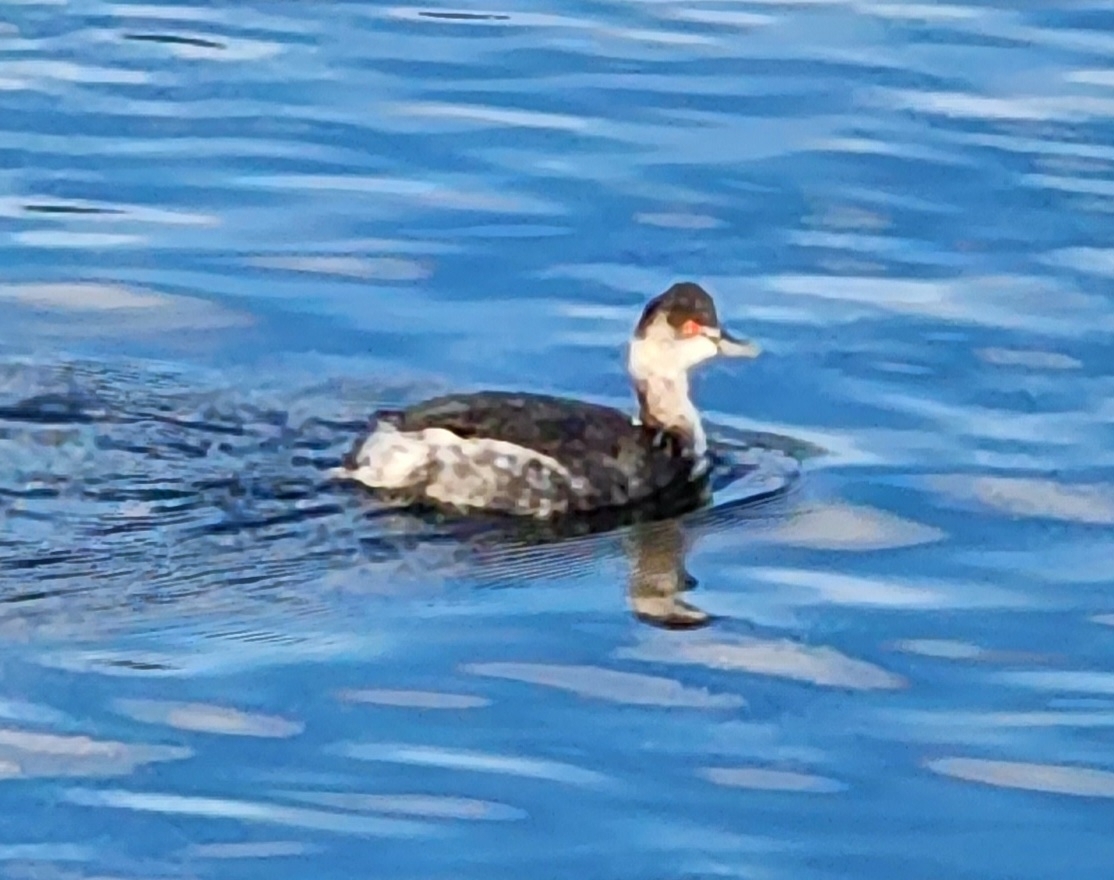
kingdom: Animalia
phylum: Chordata
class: Aves
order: Podicipediformes
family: Podicipedidae
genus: Podiceps
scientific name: Podiceps nigricollis
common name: Black-necked grebe
